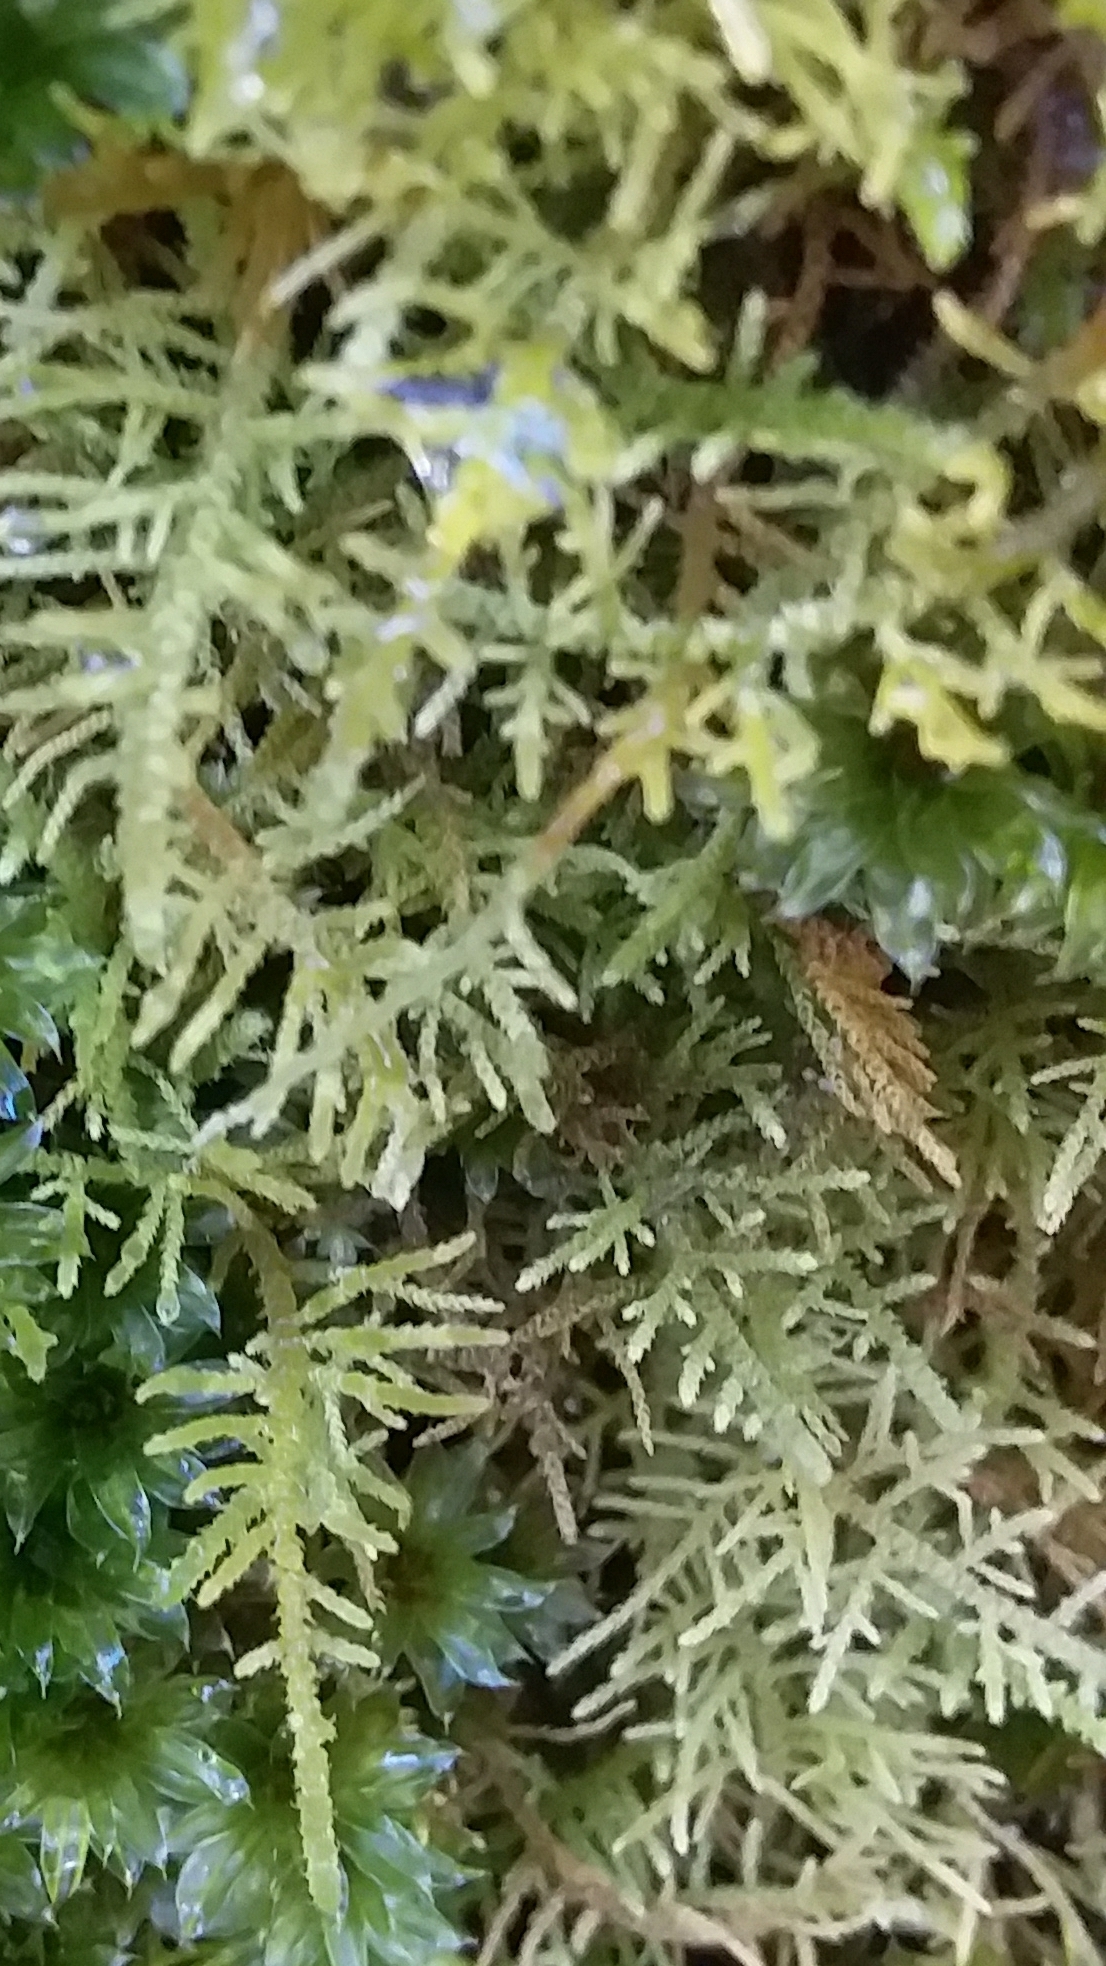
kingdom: Plantae
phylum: Bryophyta
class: Bryopsida
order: Hypnales
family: Thuidiaceae
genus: Thuidiopsis
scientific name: Thuidiopsis sparsa
